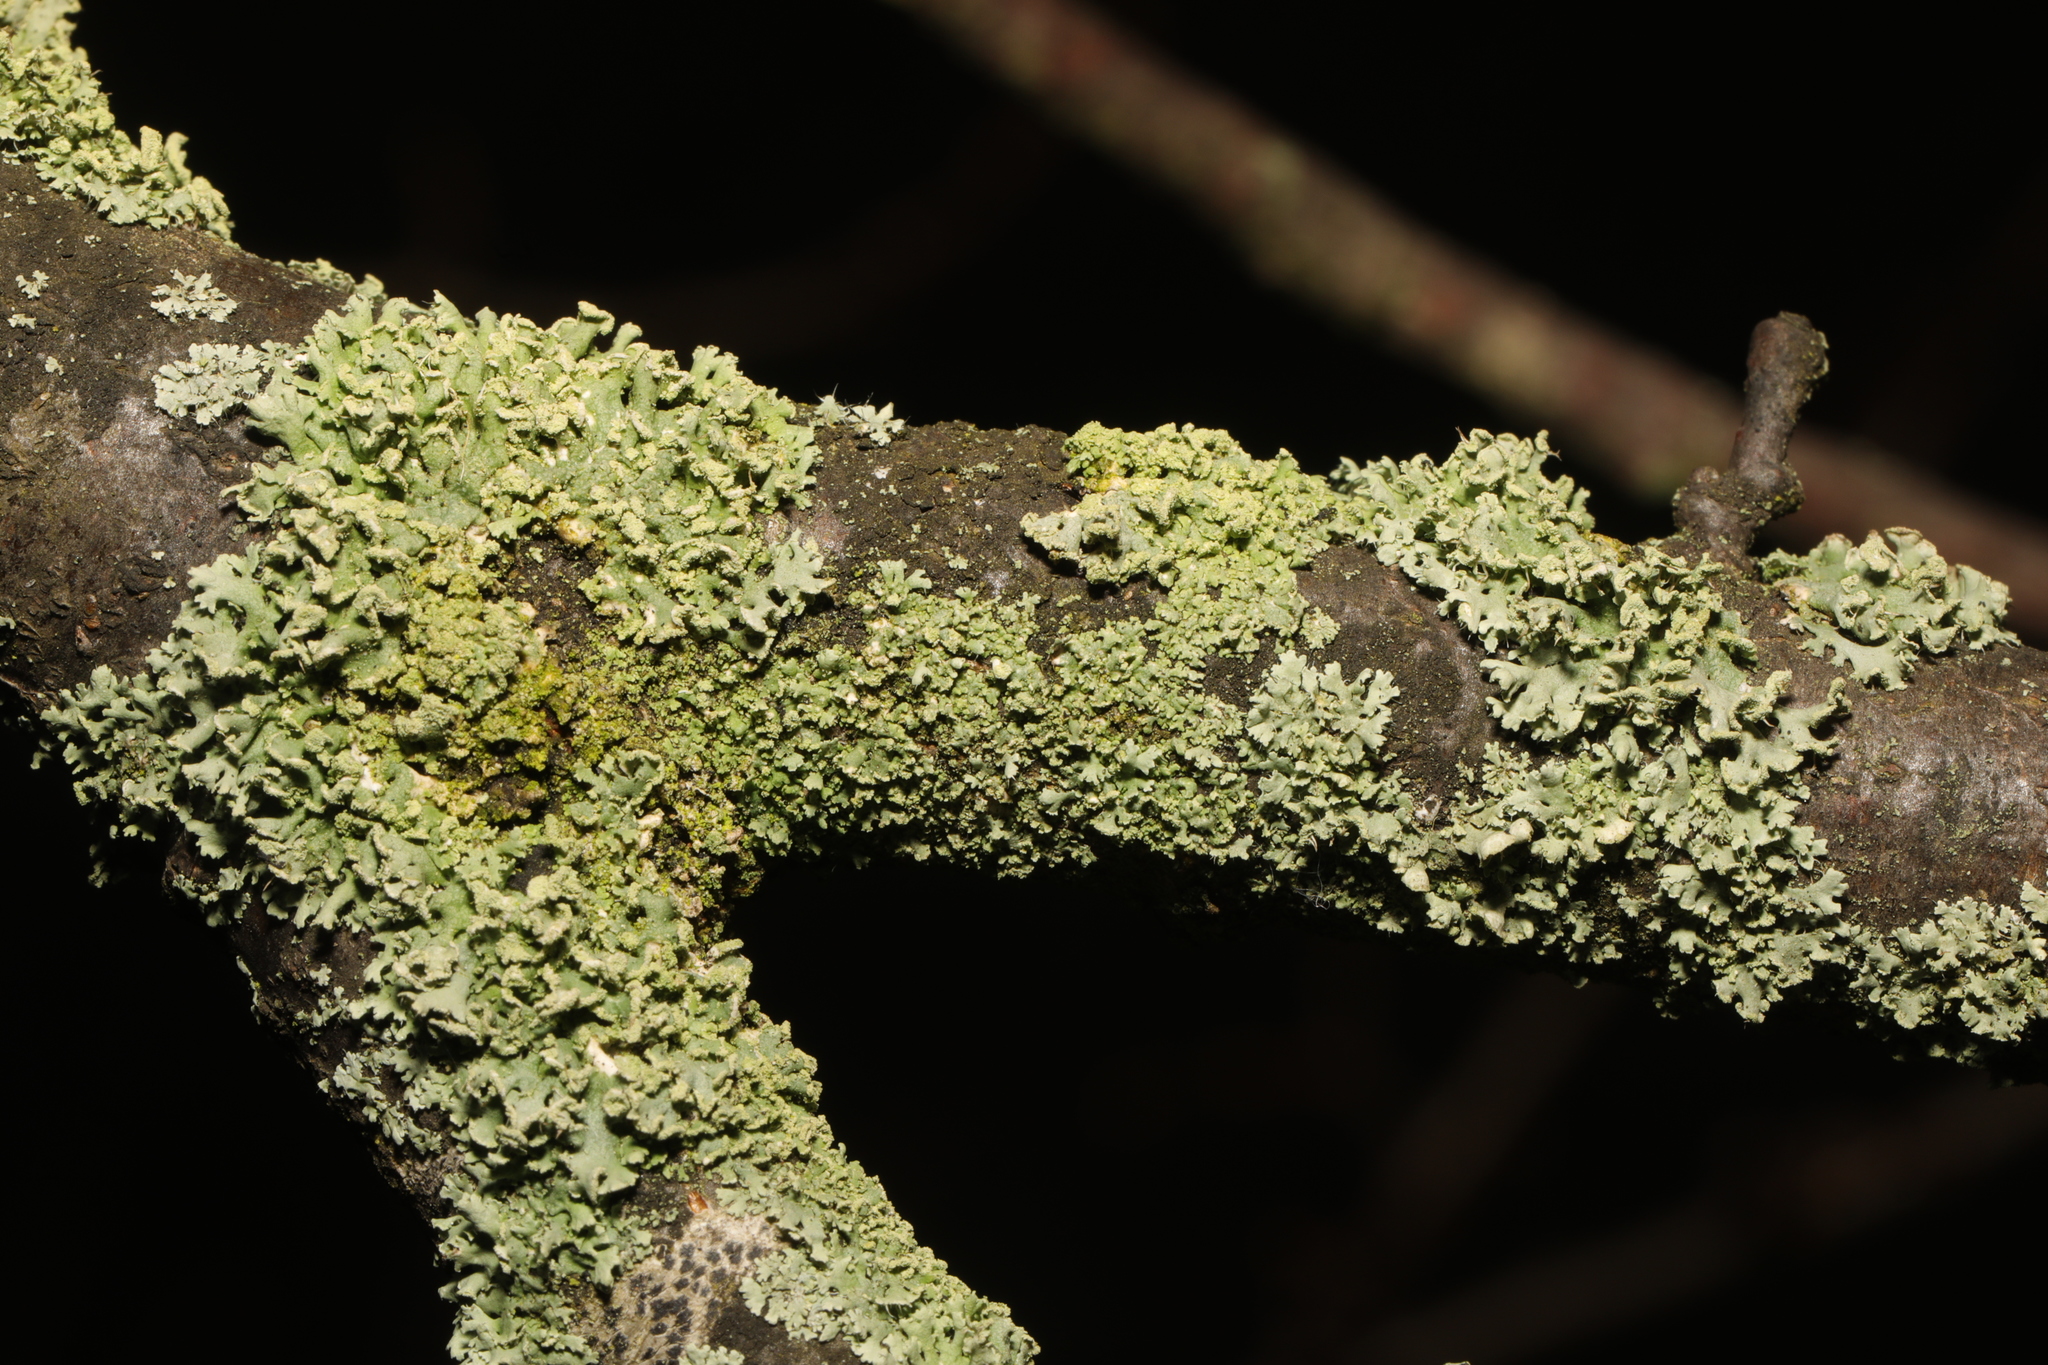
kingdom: Fungi
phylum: Ascomycota
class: Lecanoromycetes
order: Caliciales
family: Physciaceae
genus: Physcia
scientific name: Physcia tenella
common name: Fringed rosette lichen
